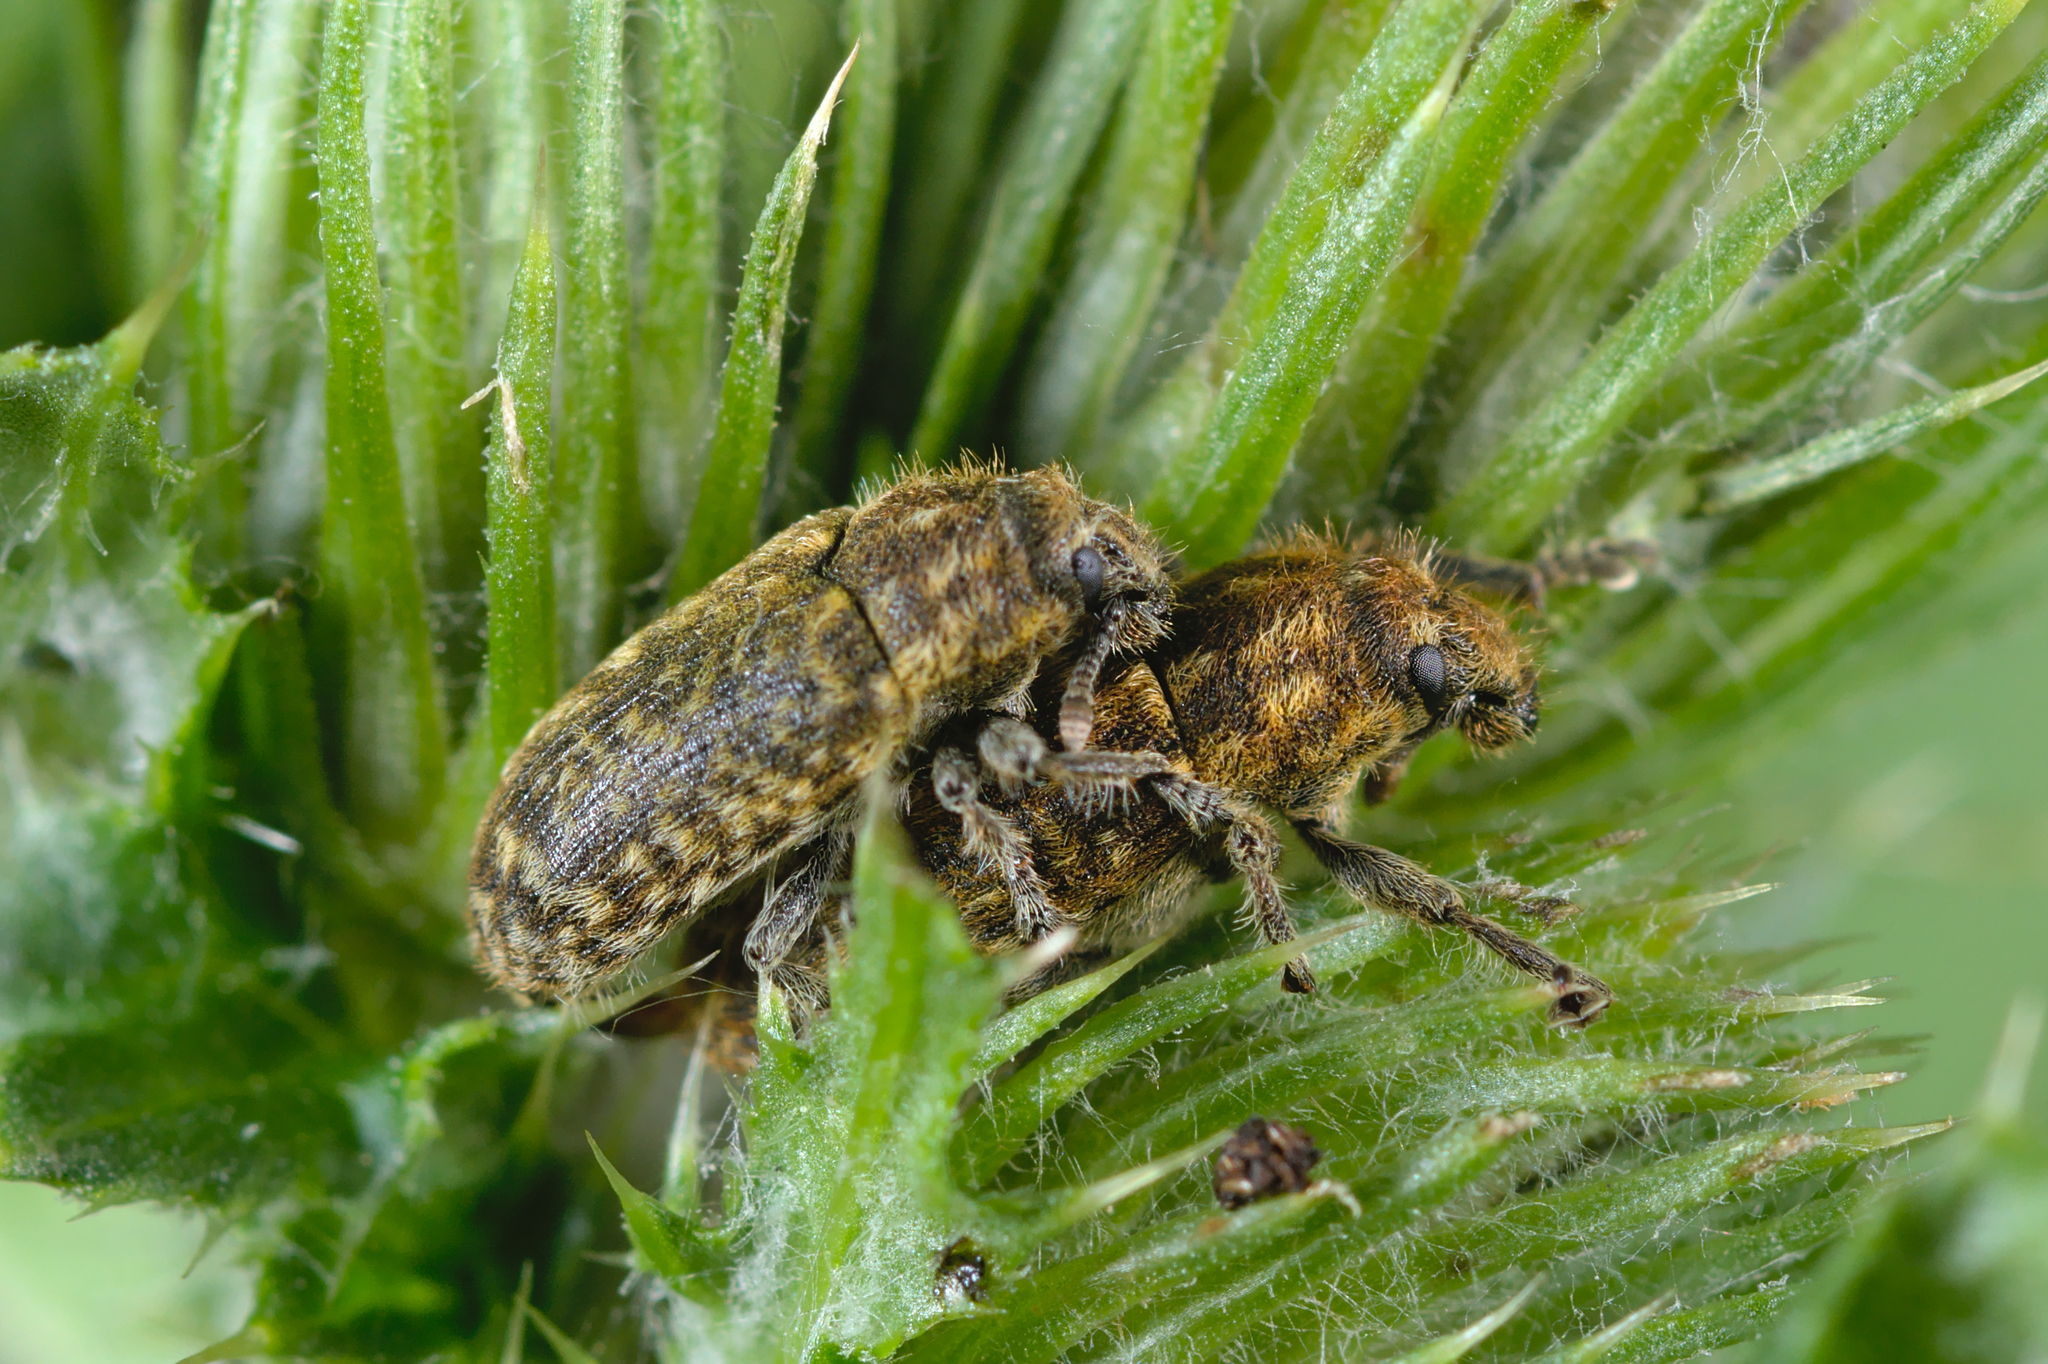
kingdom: Animalia
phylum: Arthropoda
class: Insecta
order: Coleoptera
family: Curculionidae
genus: Rhinocyllus
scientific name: Rhinocyllus conicus
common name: Weevil
